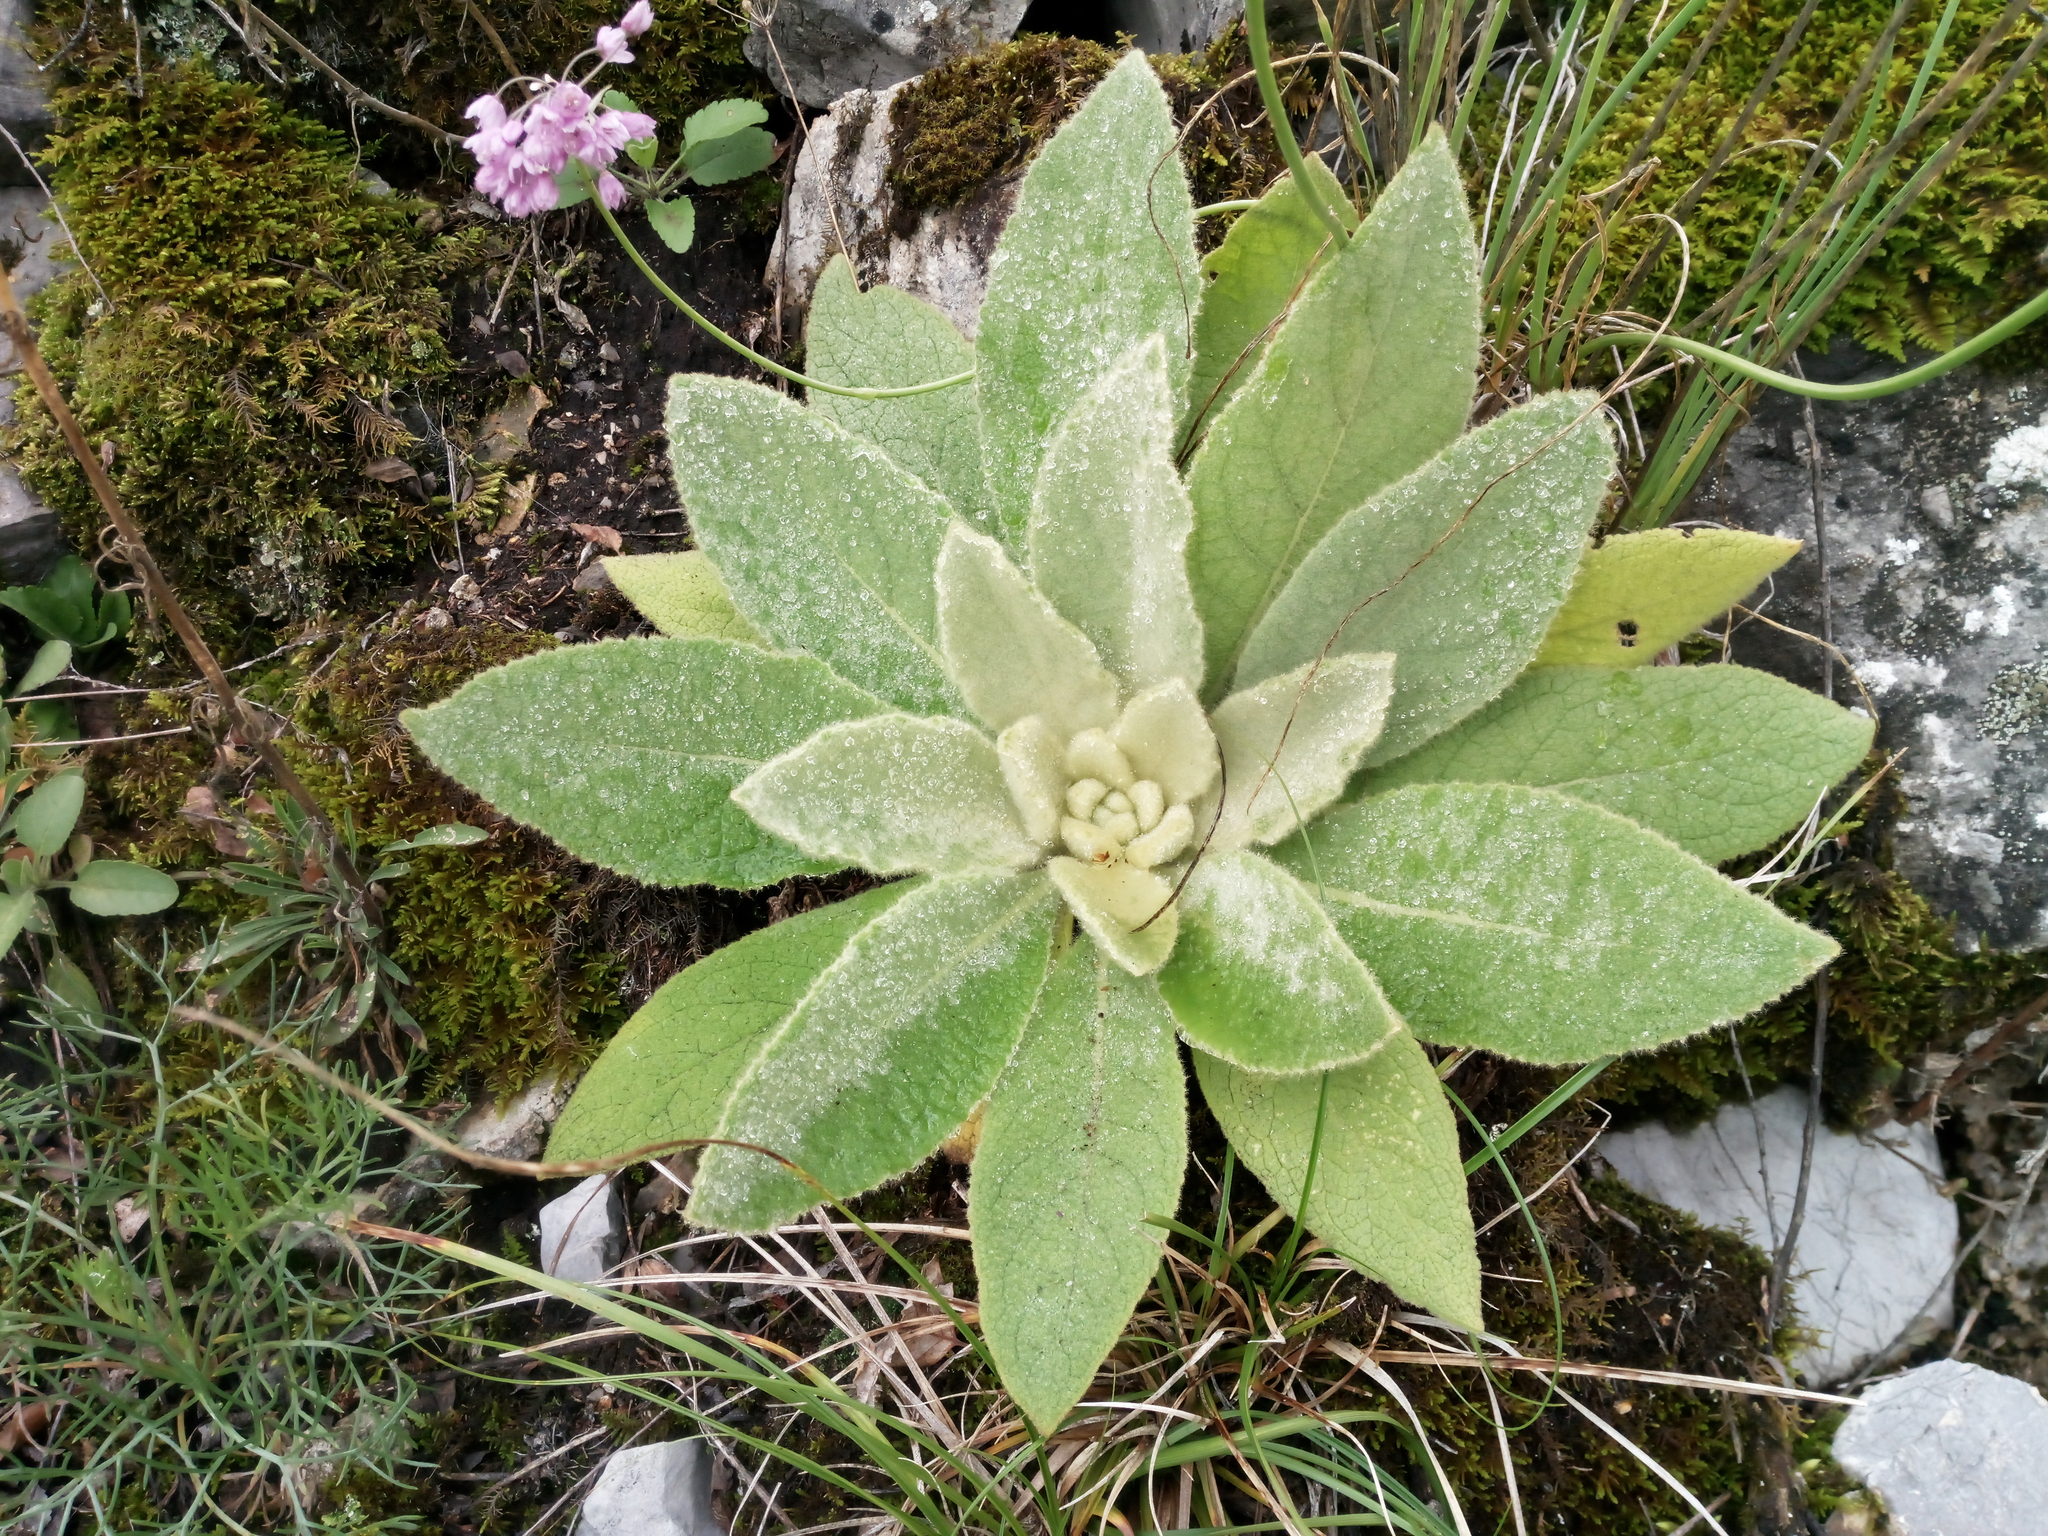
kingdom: Plantae
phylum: Tracheophyta
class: Magnoliopsida
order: Lamiales
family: Scrophulariaceae
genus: Verbascum
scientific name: Verbascum thapsus
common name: Common mullein
